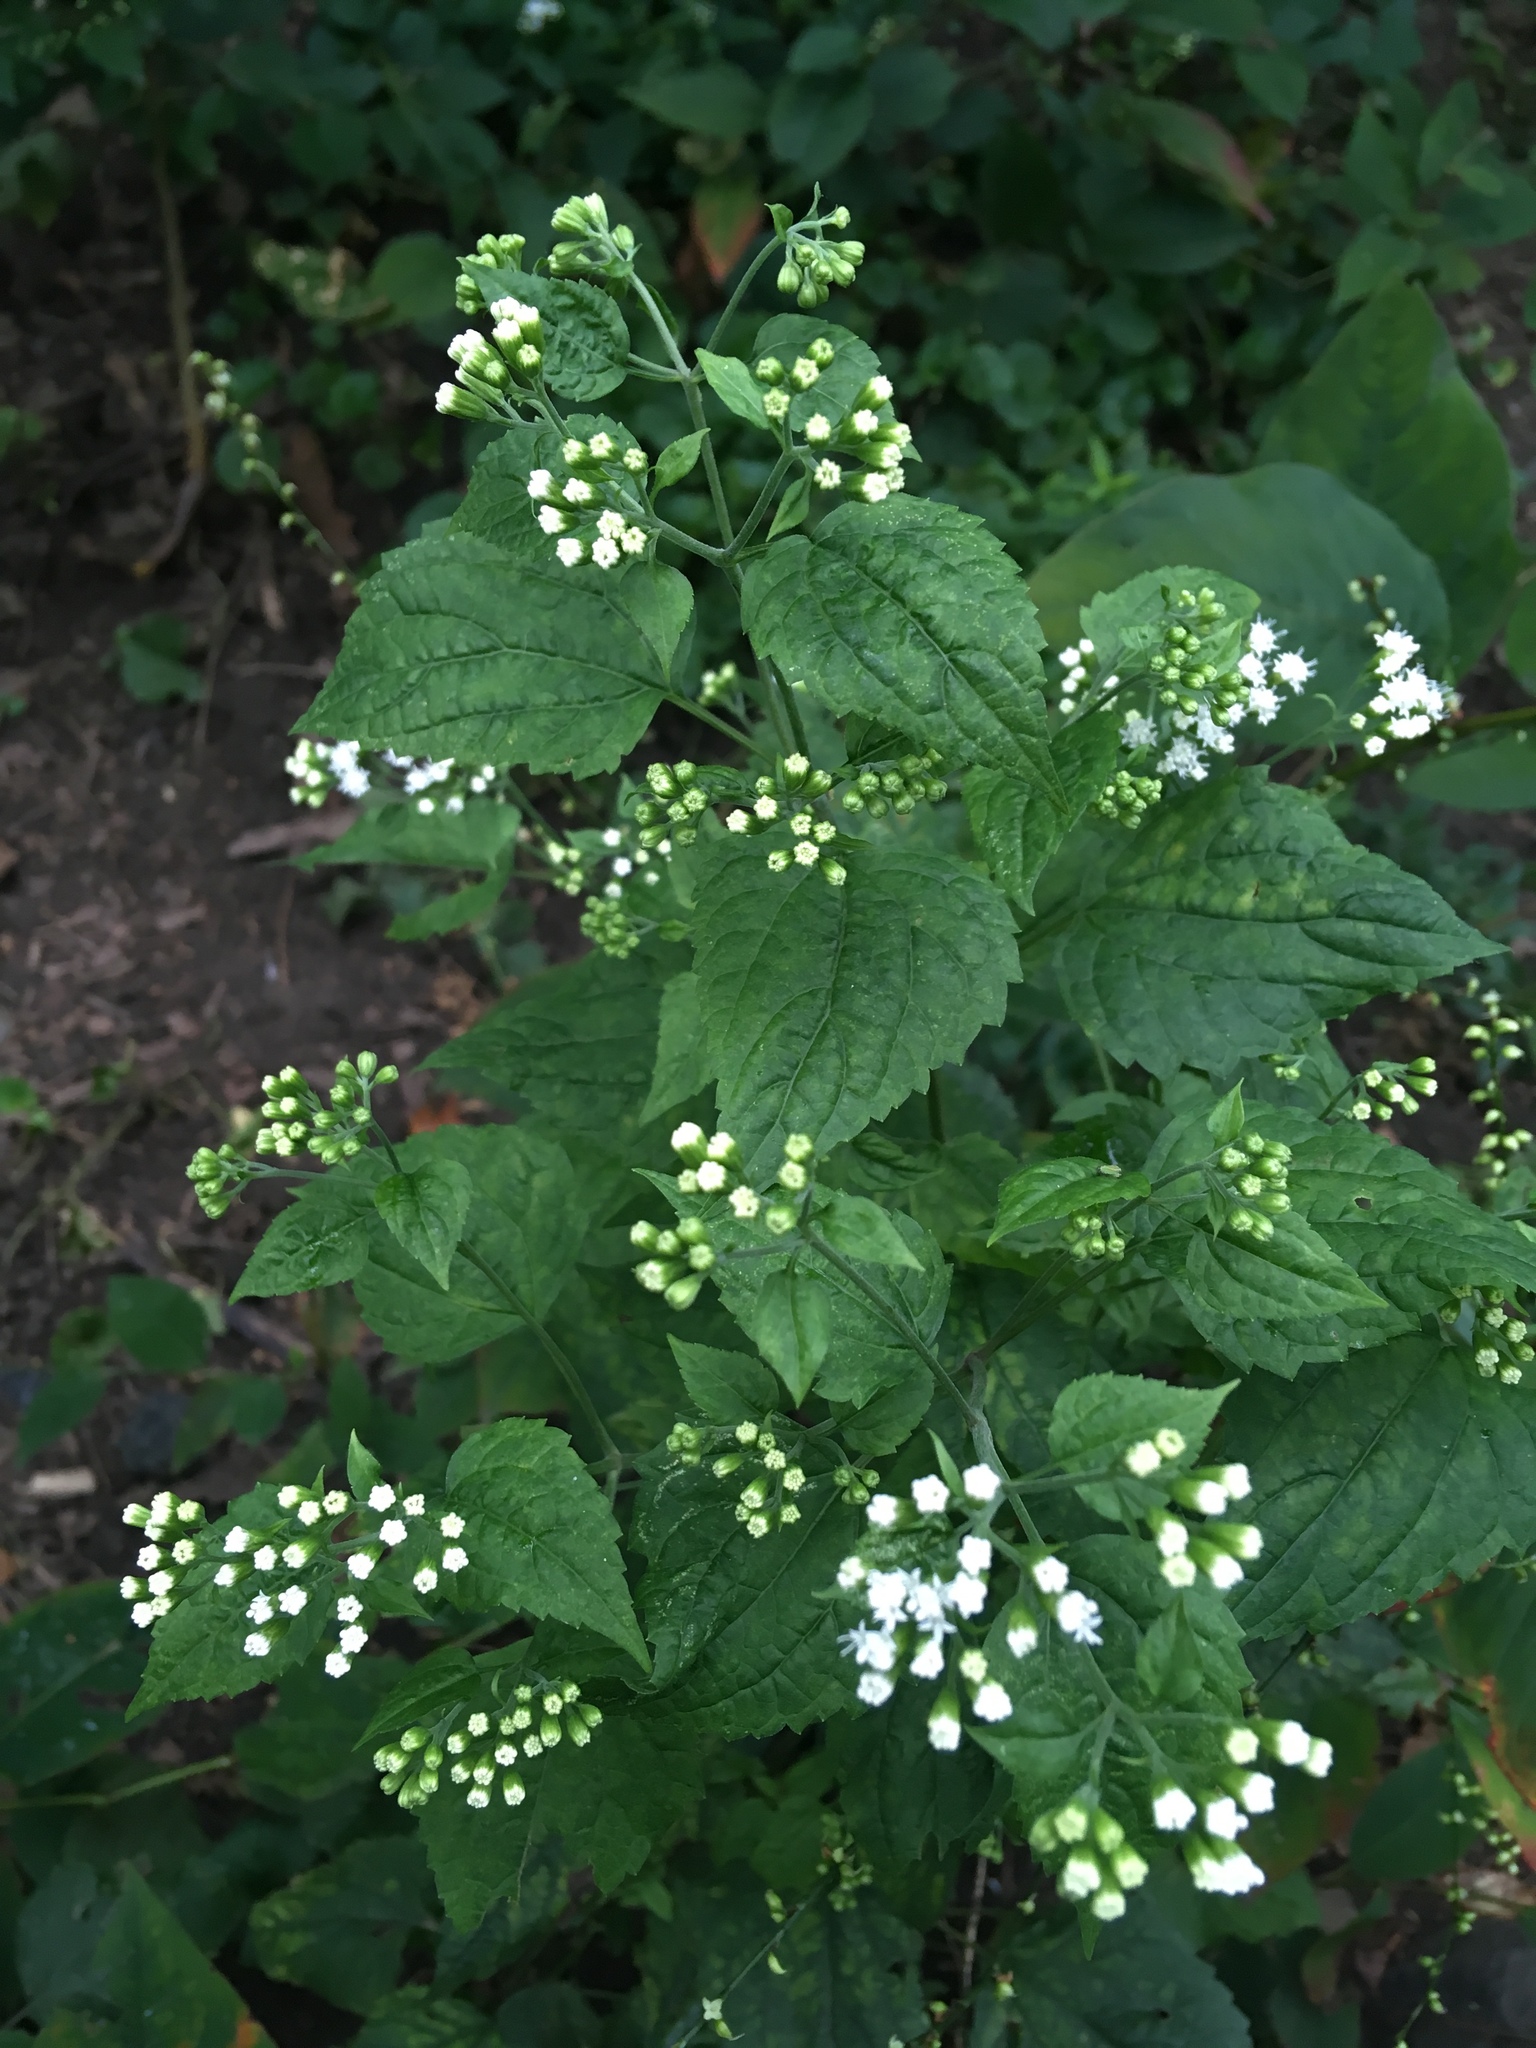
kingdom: Plantae
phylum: Tracheophyta
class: Magnoliopsida
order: Asterales
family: Asteraceae
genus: Ageratina
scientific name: Ageratina altissima
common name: White snakeroot
